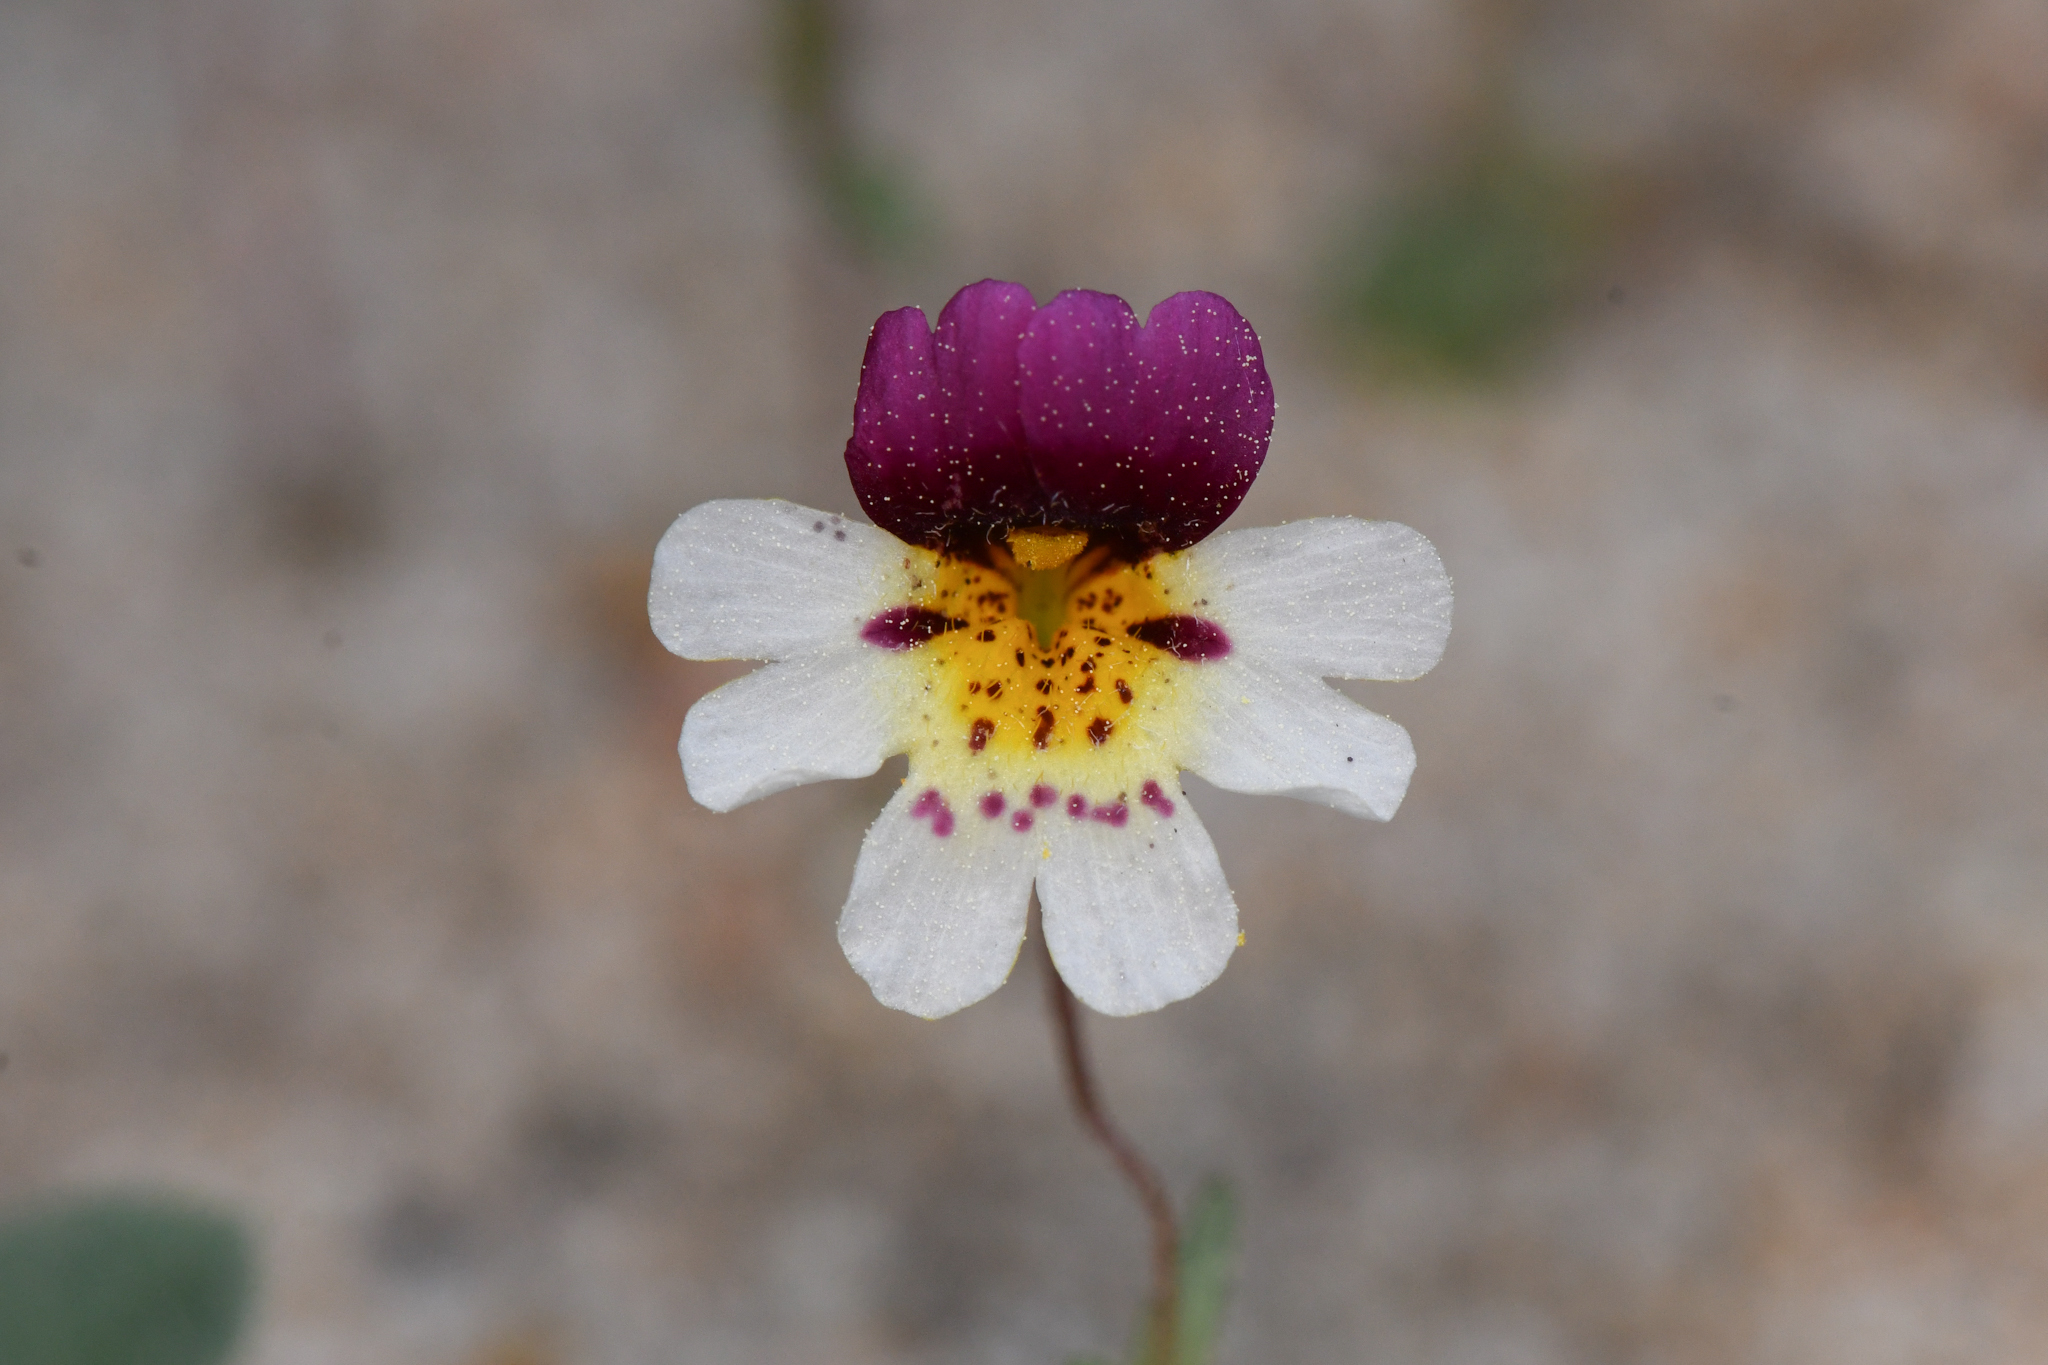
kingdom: Plantae
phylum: Tracheophyta
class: Magnoliopsida
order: Lamiales
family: Phrymaceae
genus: Erythranthe
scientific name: Erythranthe barbata
